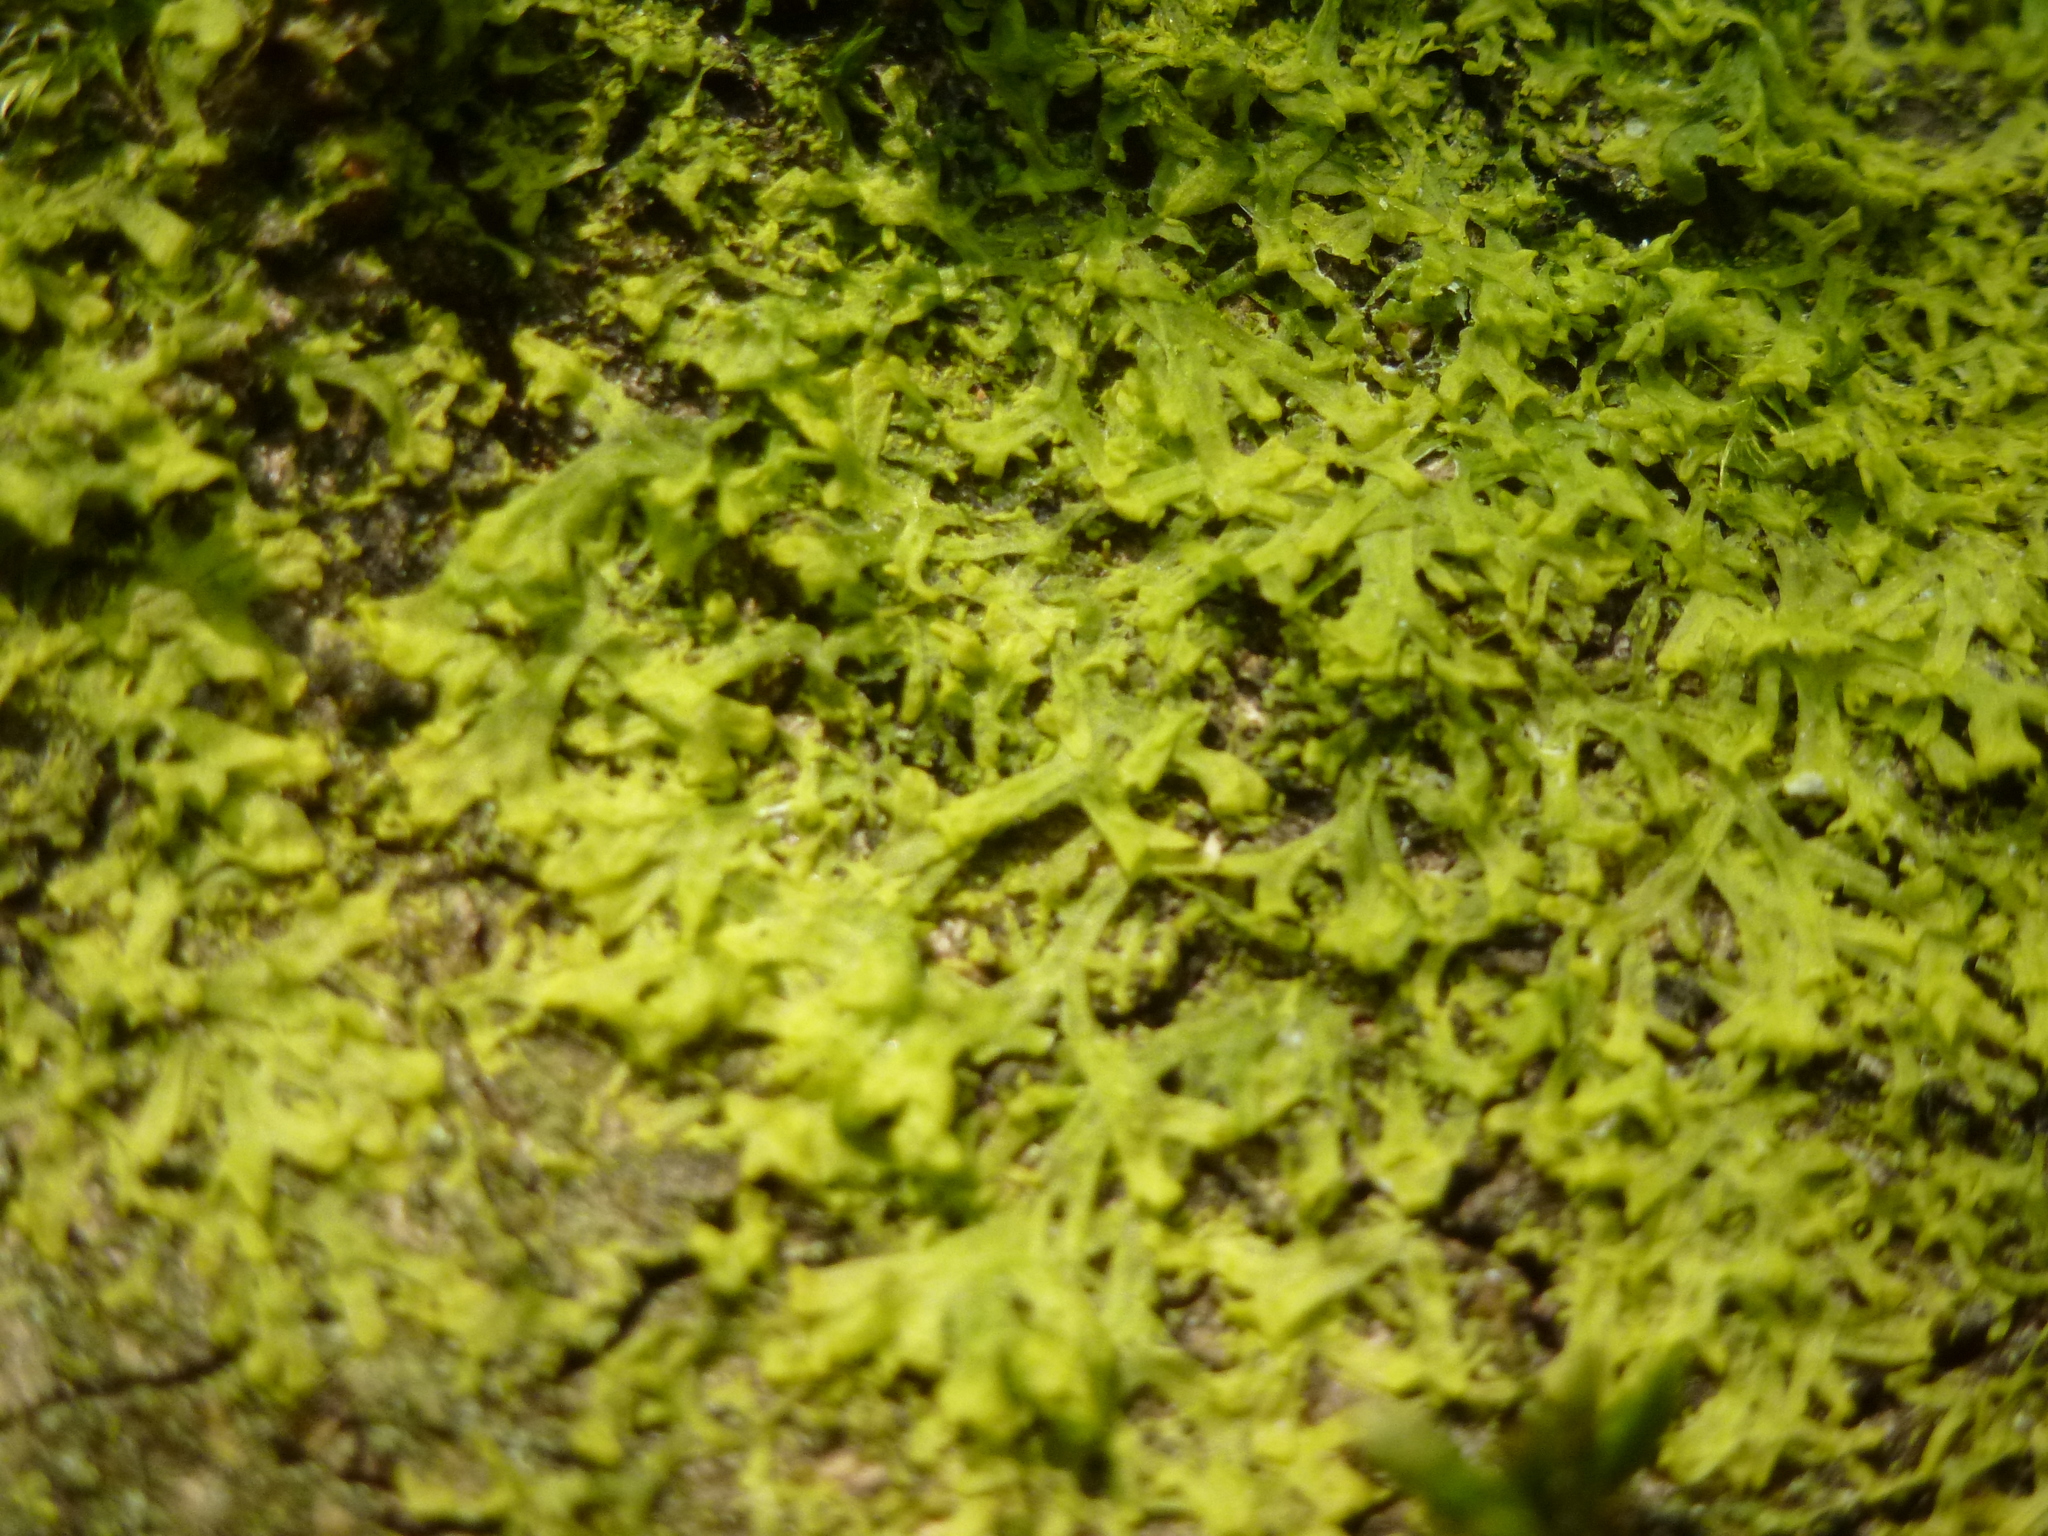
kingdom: Plantae
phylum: Marchantiophyta
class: Jungermanniopsida
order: Metzgeriales
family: Metzgeriaceae
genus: Metzgeria
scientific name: Metzgeria furcata
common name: Forked veilwort
